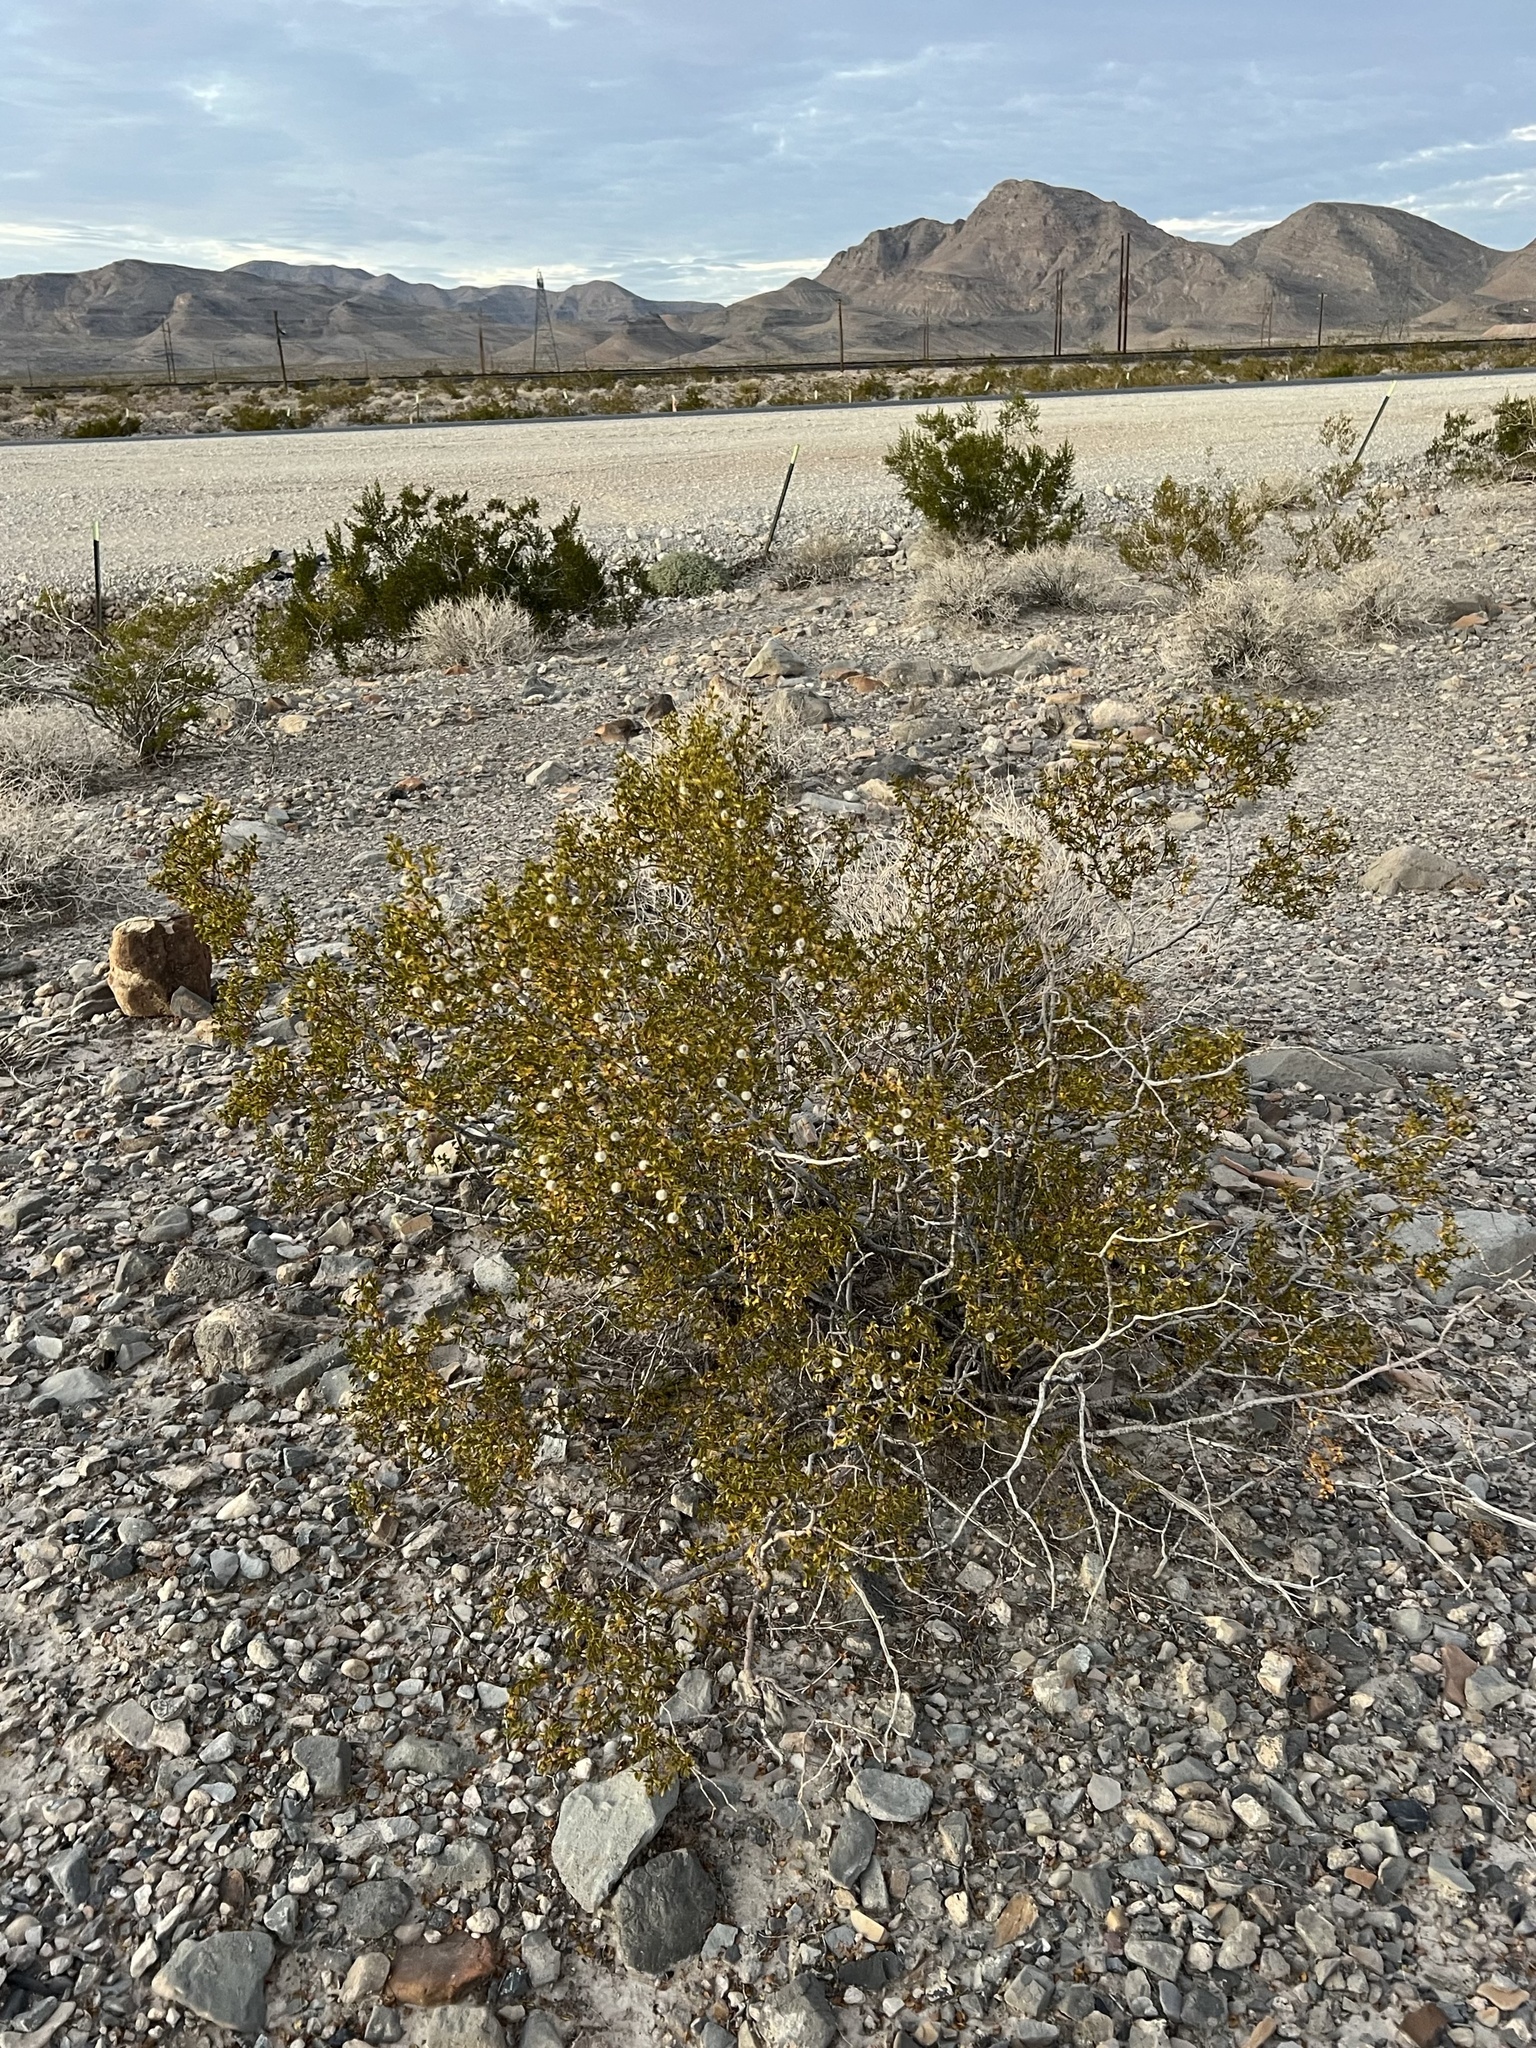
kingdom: Plantae
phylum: Tracheophyta
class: Magnoliopsida
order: Zygophyllales
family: Zygophyllaceae
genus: Larrea
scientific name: Larrea tridentata
